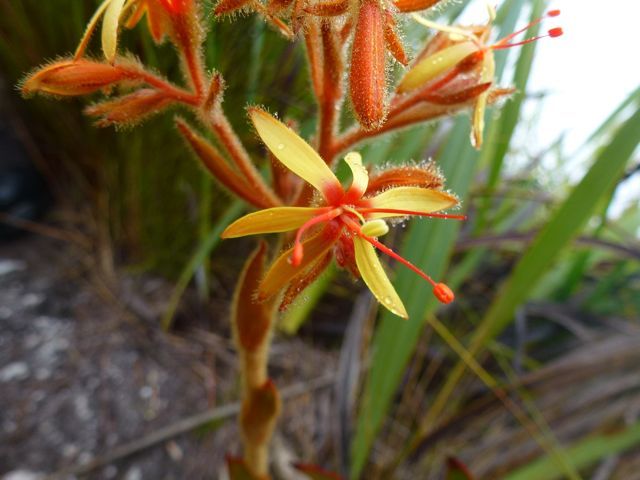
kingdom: Plantae
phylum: Tracheophyta
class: Liliopsida
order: Commelinales
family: Haemodoraceae
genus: Dilatris
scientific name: Dilatris viscosa
